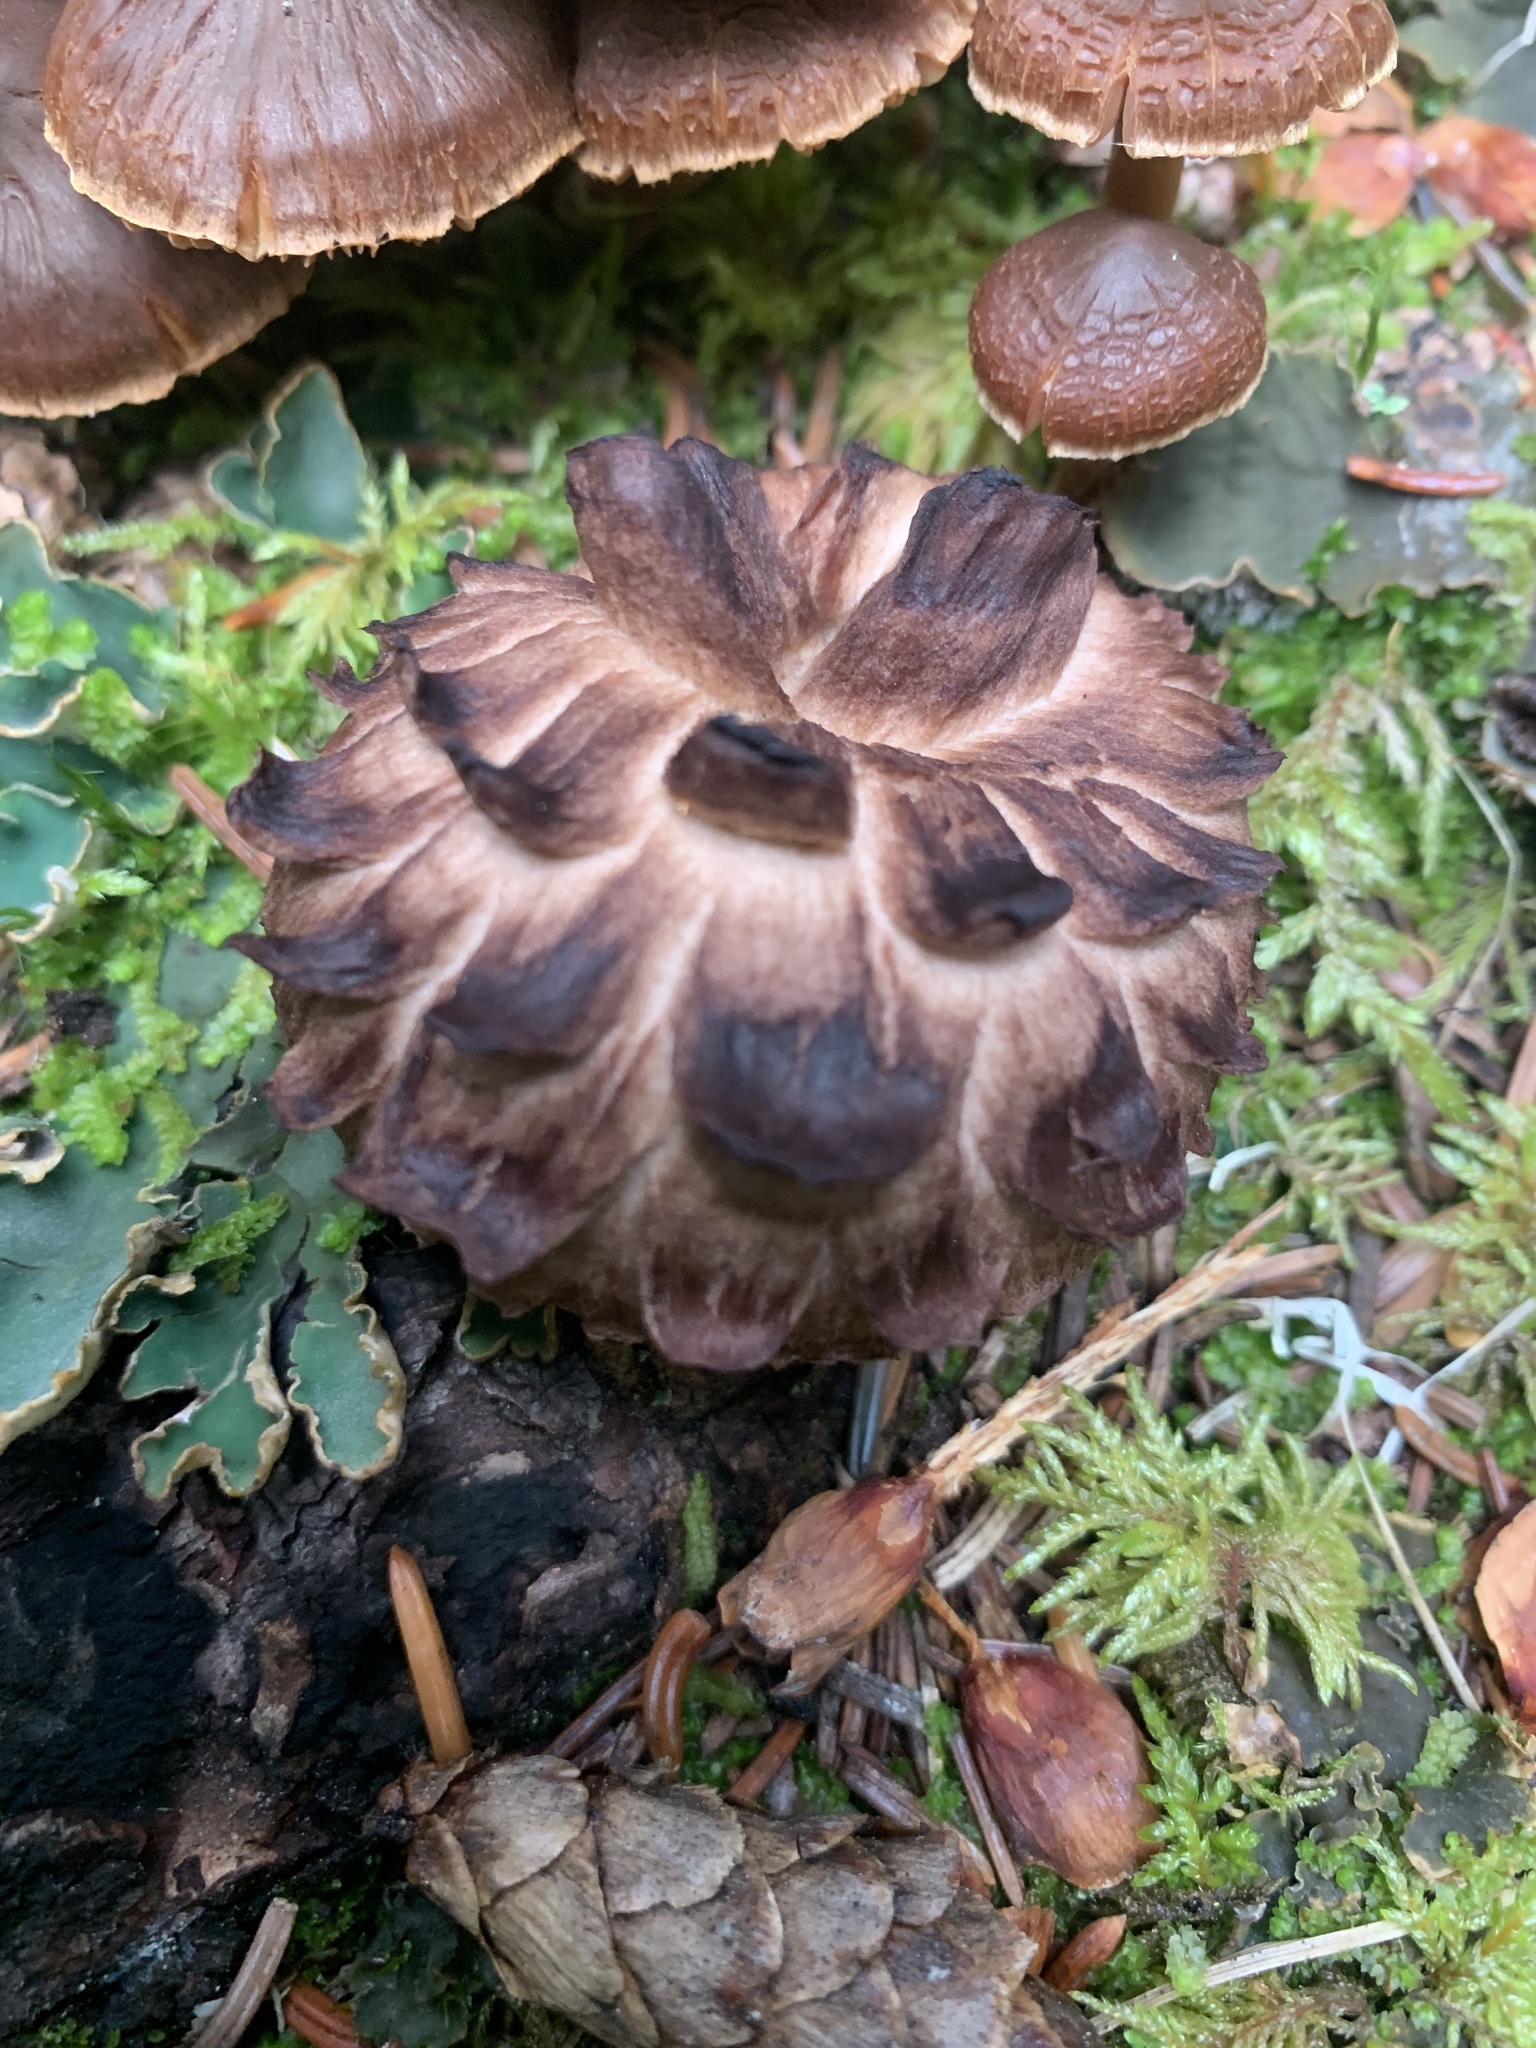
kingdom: Fungi
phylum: Basidiomycota
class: Agaricomycetes
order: Thelephorales
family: Bankeraceae
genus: Sarcodon
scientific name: Sarcodon imbricatus
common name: Shingled hedgehog
